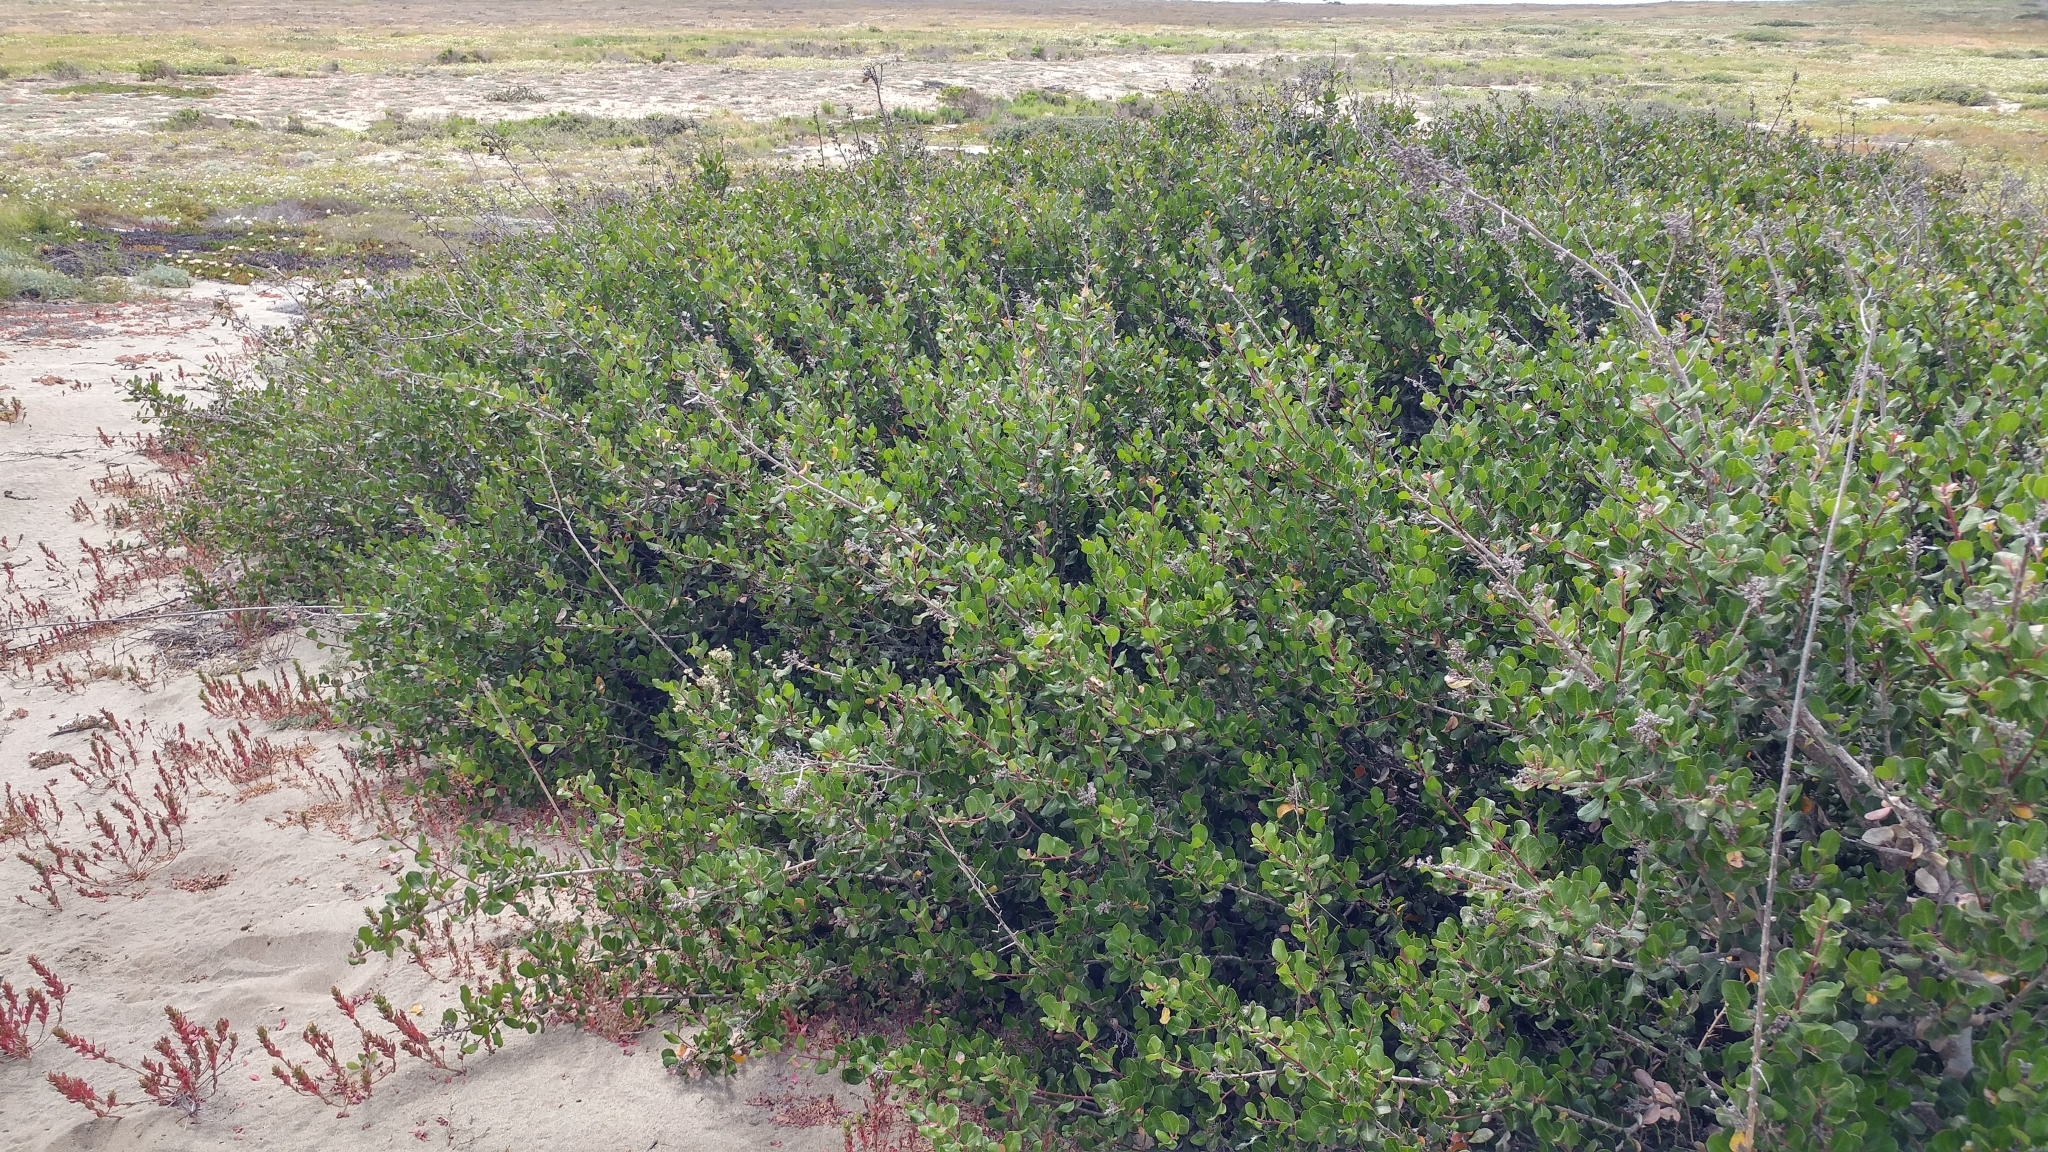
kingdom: Plantae
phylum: Tracheophyta
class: Magnoliopsida
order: Sapindales
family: Anacardiaceae
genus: Rhus
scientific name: Rhus integrifolia
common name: Lemonade sumac
